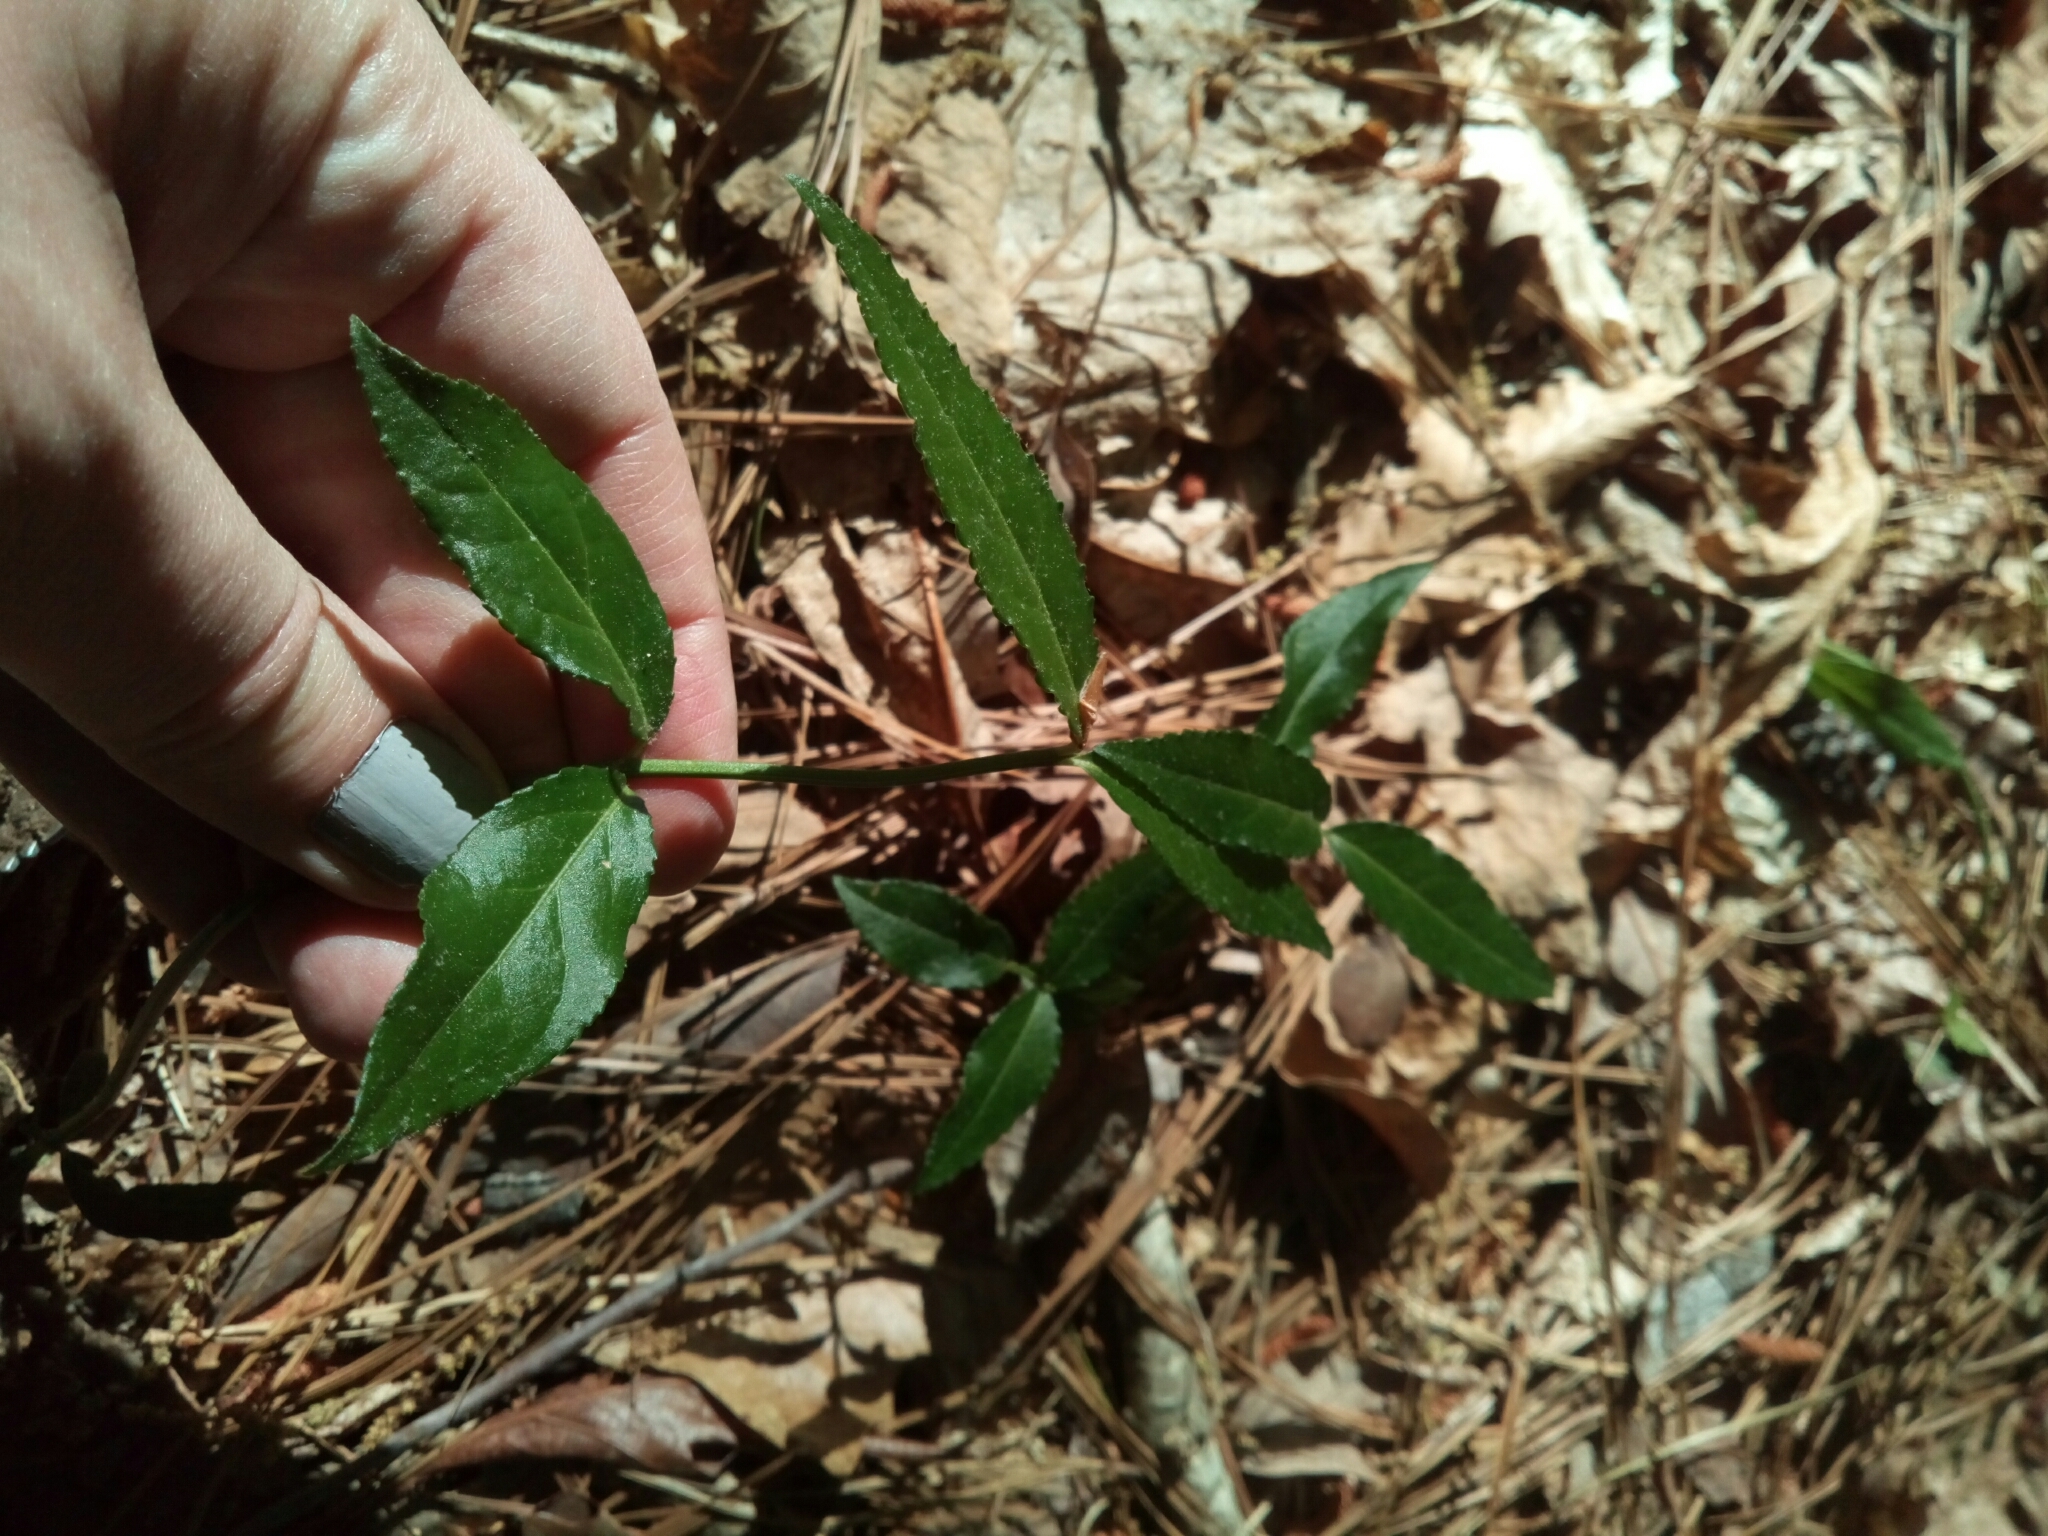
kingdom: Plantae
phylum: Tracheophyta
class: Magnoliopsida
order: Celastrales
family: Celastraceae
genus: Euonymus
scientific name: Euonymus americanus
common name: Bursting-heart
